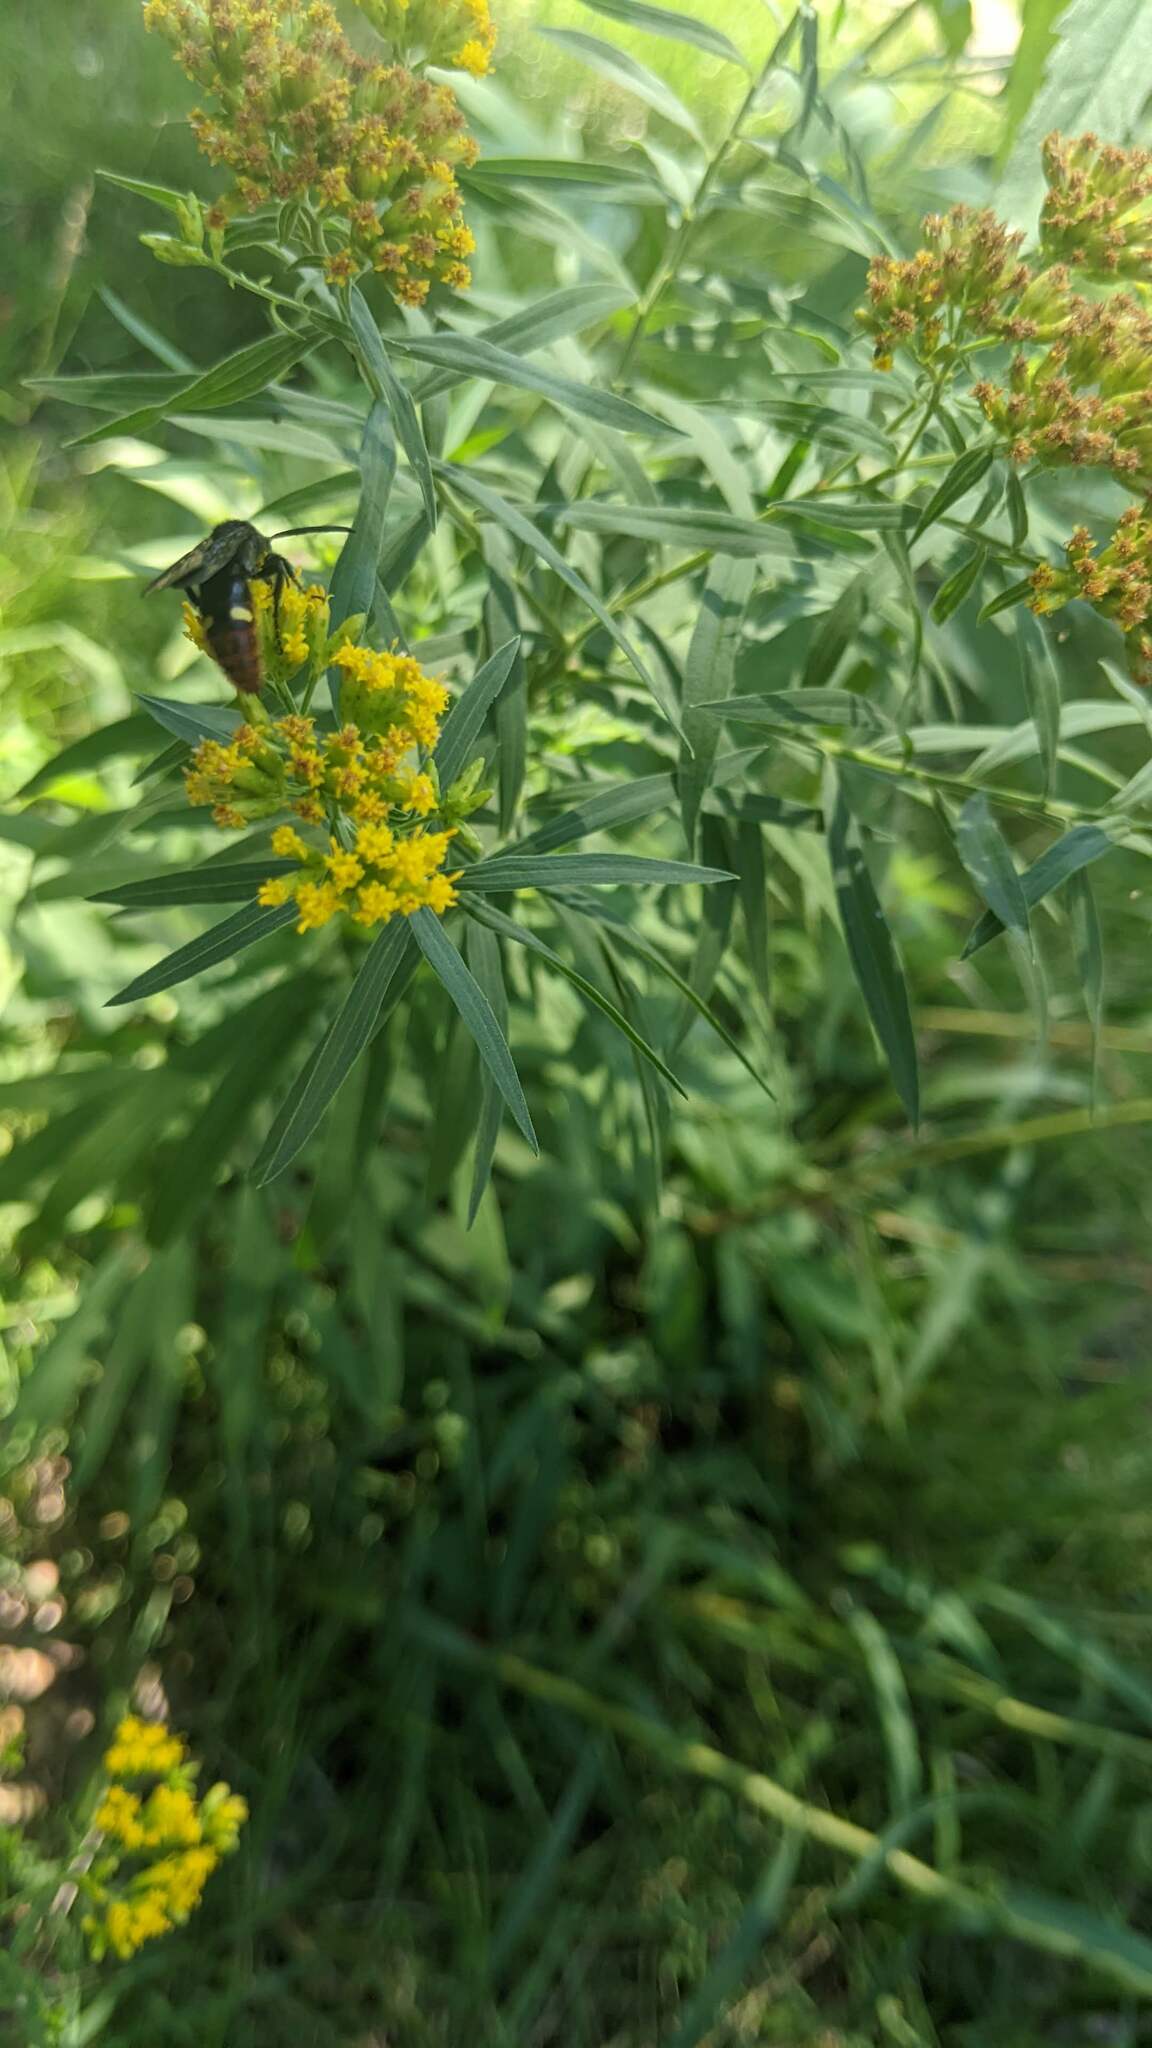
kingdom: Animalia
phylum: Arthropoda
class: Insecta
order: Hymenoptera
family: Scoliidae
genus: Scolia
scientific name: Scolia dubia
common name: Blue-winged scoliid wasp
